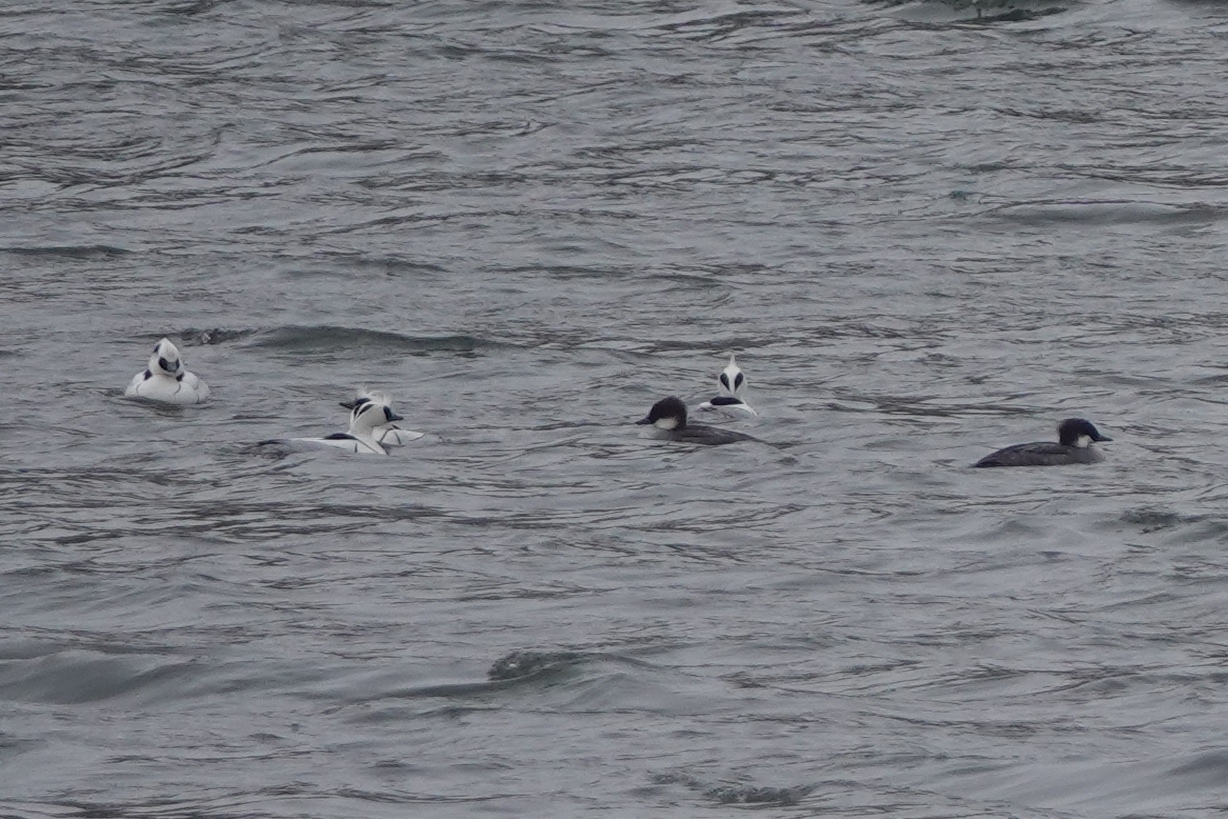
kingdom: Animalia
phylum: Chordata
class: Aves
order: Anseriformes
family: Anatidae
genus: Mergellus
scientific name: Mergellus albellus
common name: Smew
